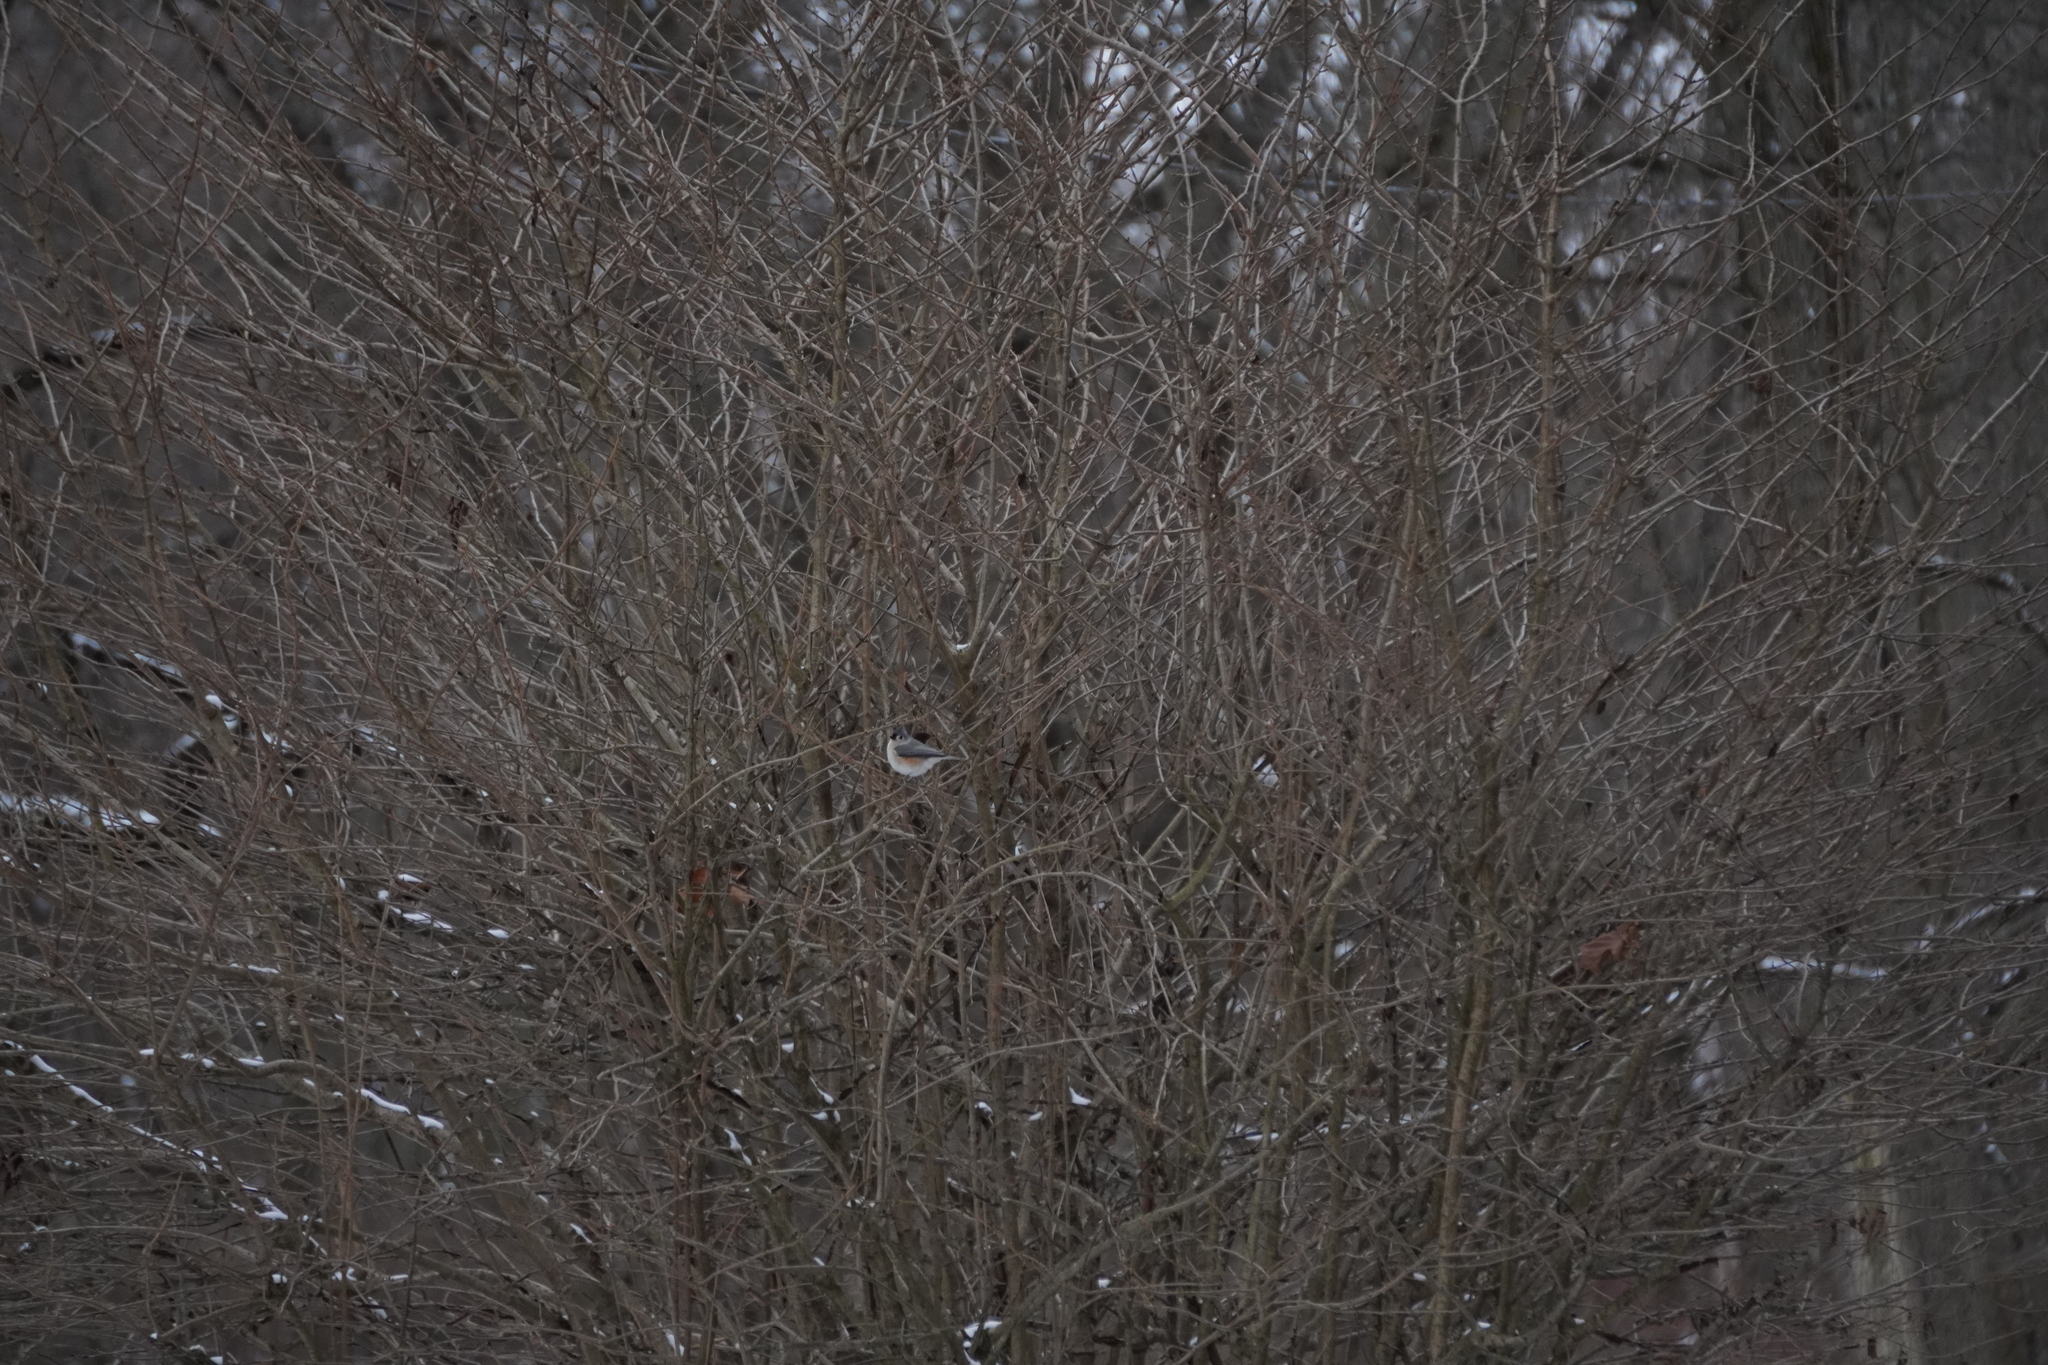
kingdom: Animalia
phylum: Chordata
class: Aves
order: Passeriformes
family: Paridae
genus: Baeolophus
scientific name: Baeolophus bicolor
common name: Tufted titmouse
